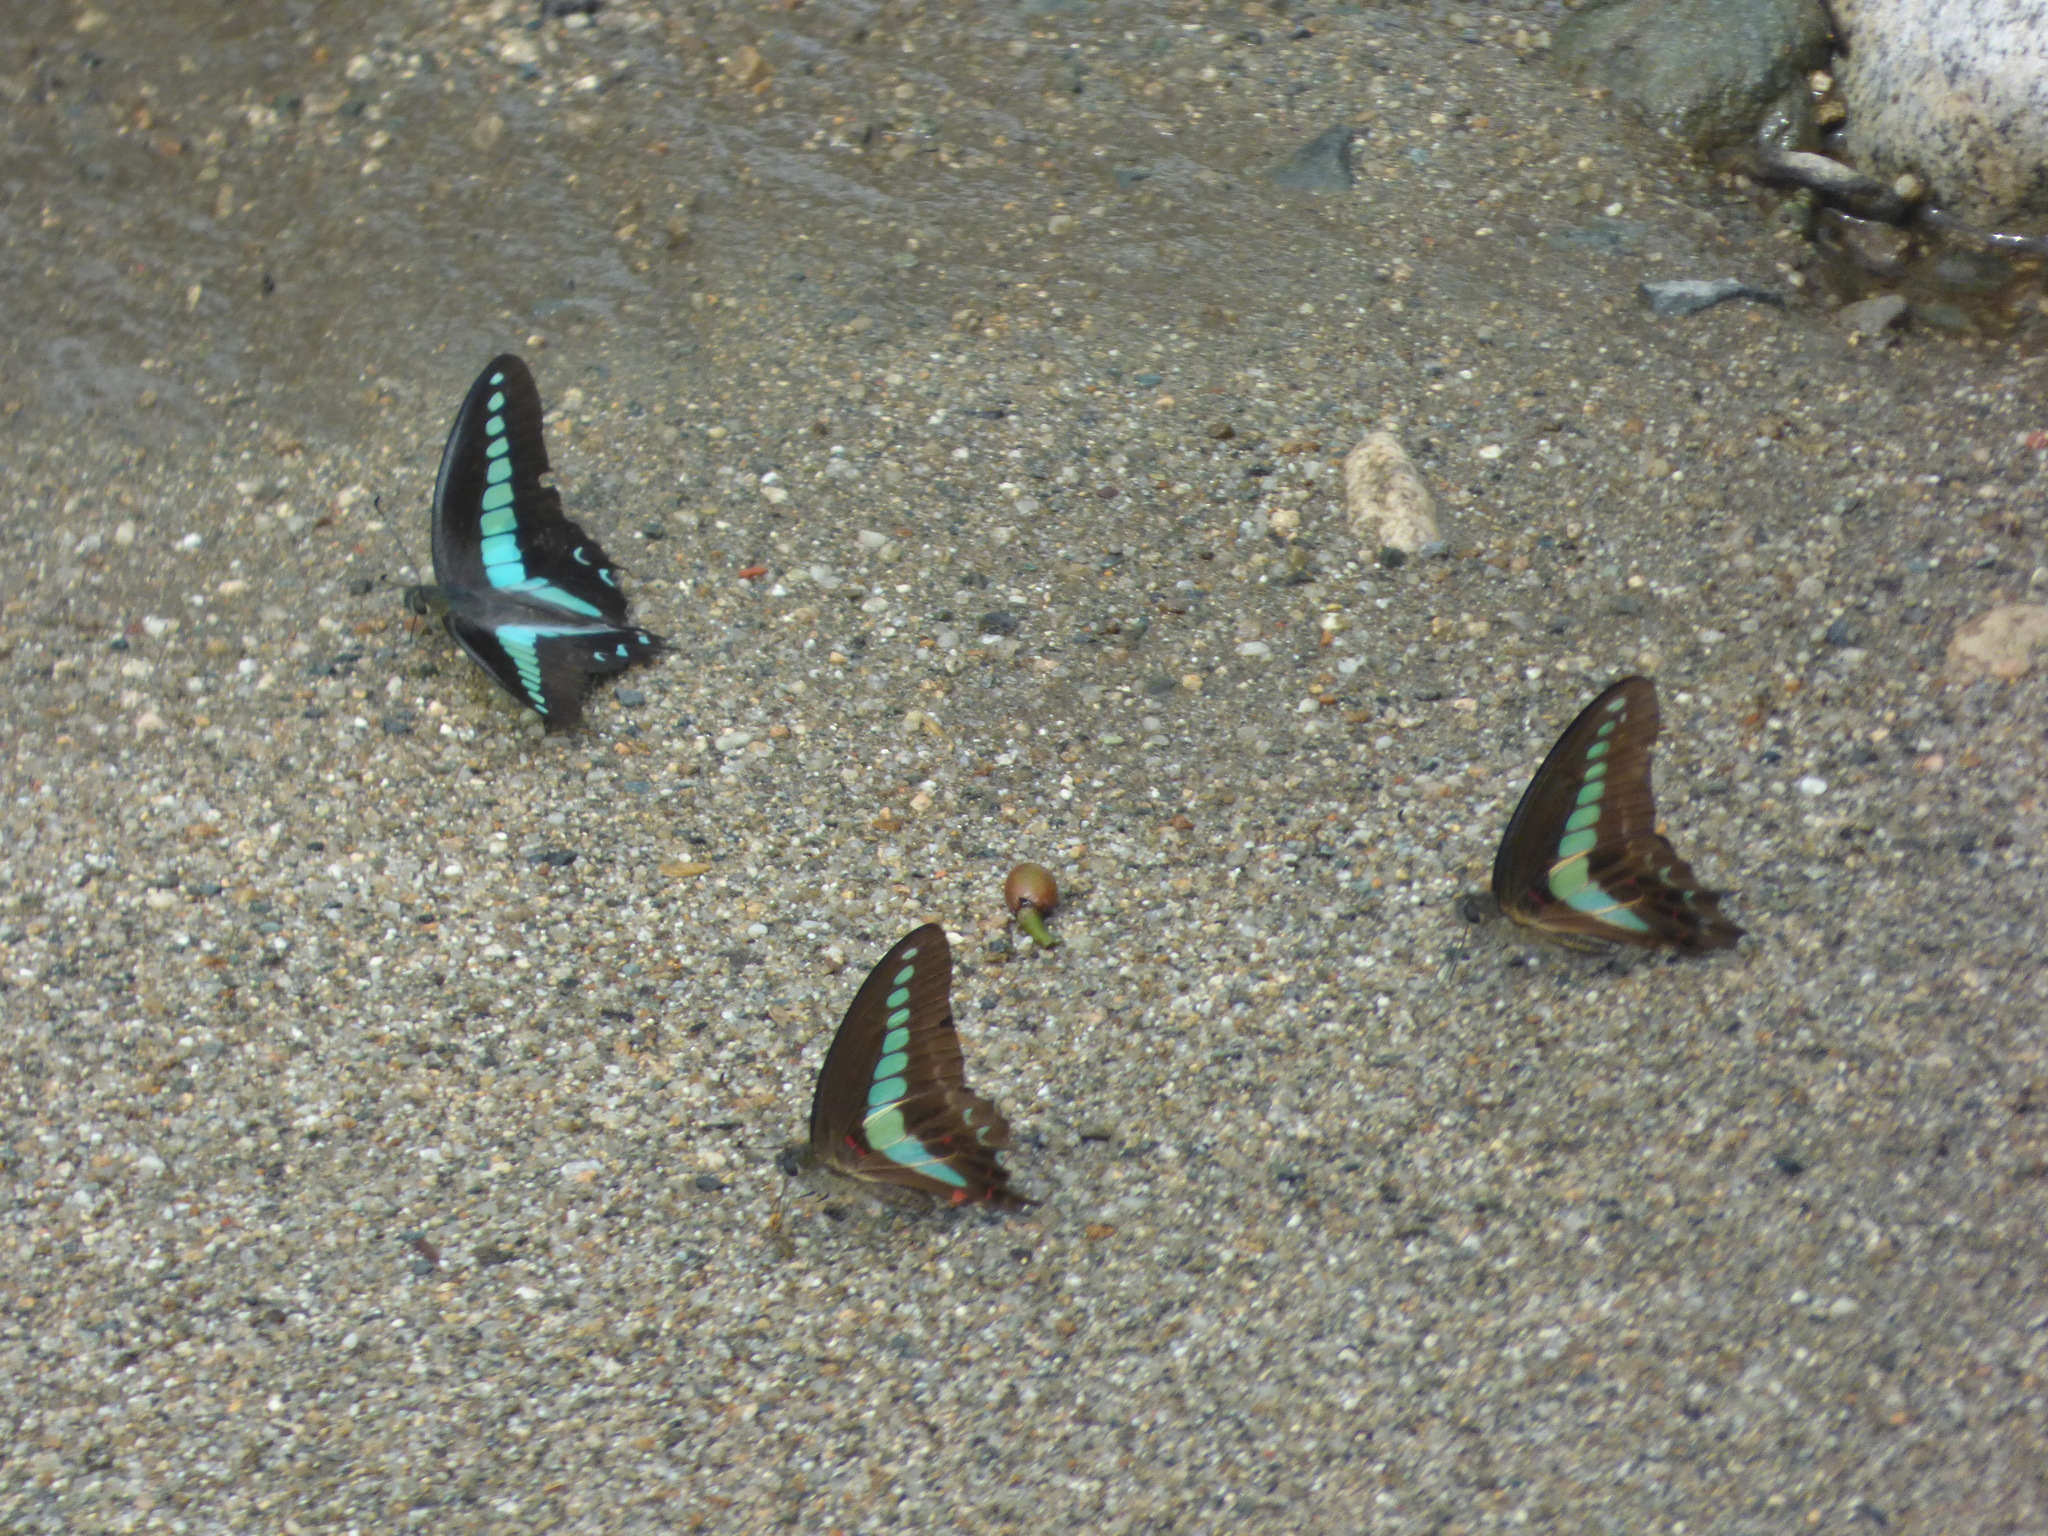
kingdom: Fungi
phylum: Ascomycota
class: Sordariomycetes
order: Microascales
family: Microascaceae
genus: Graphium
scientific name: Graphium sarpedon
